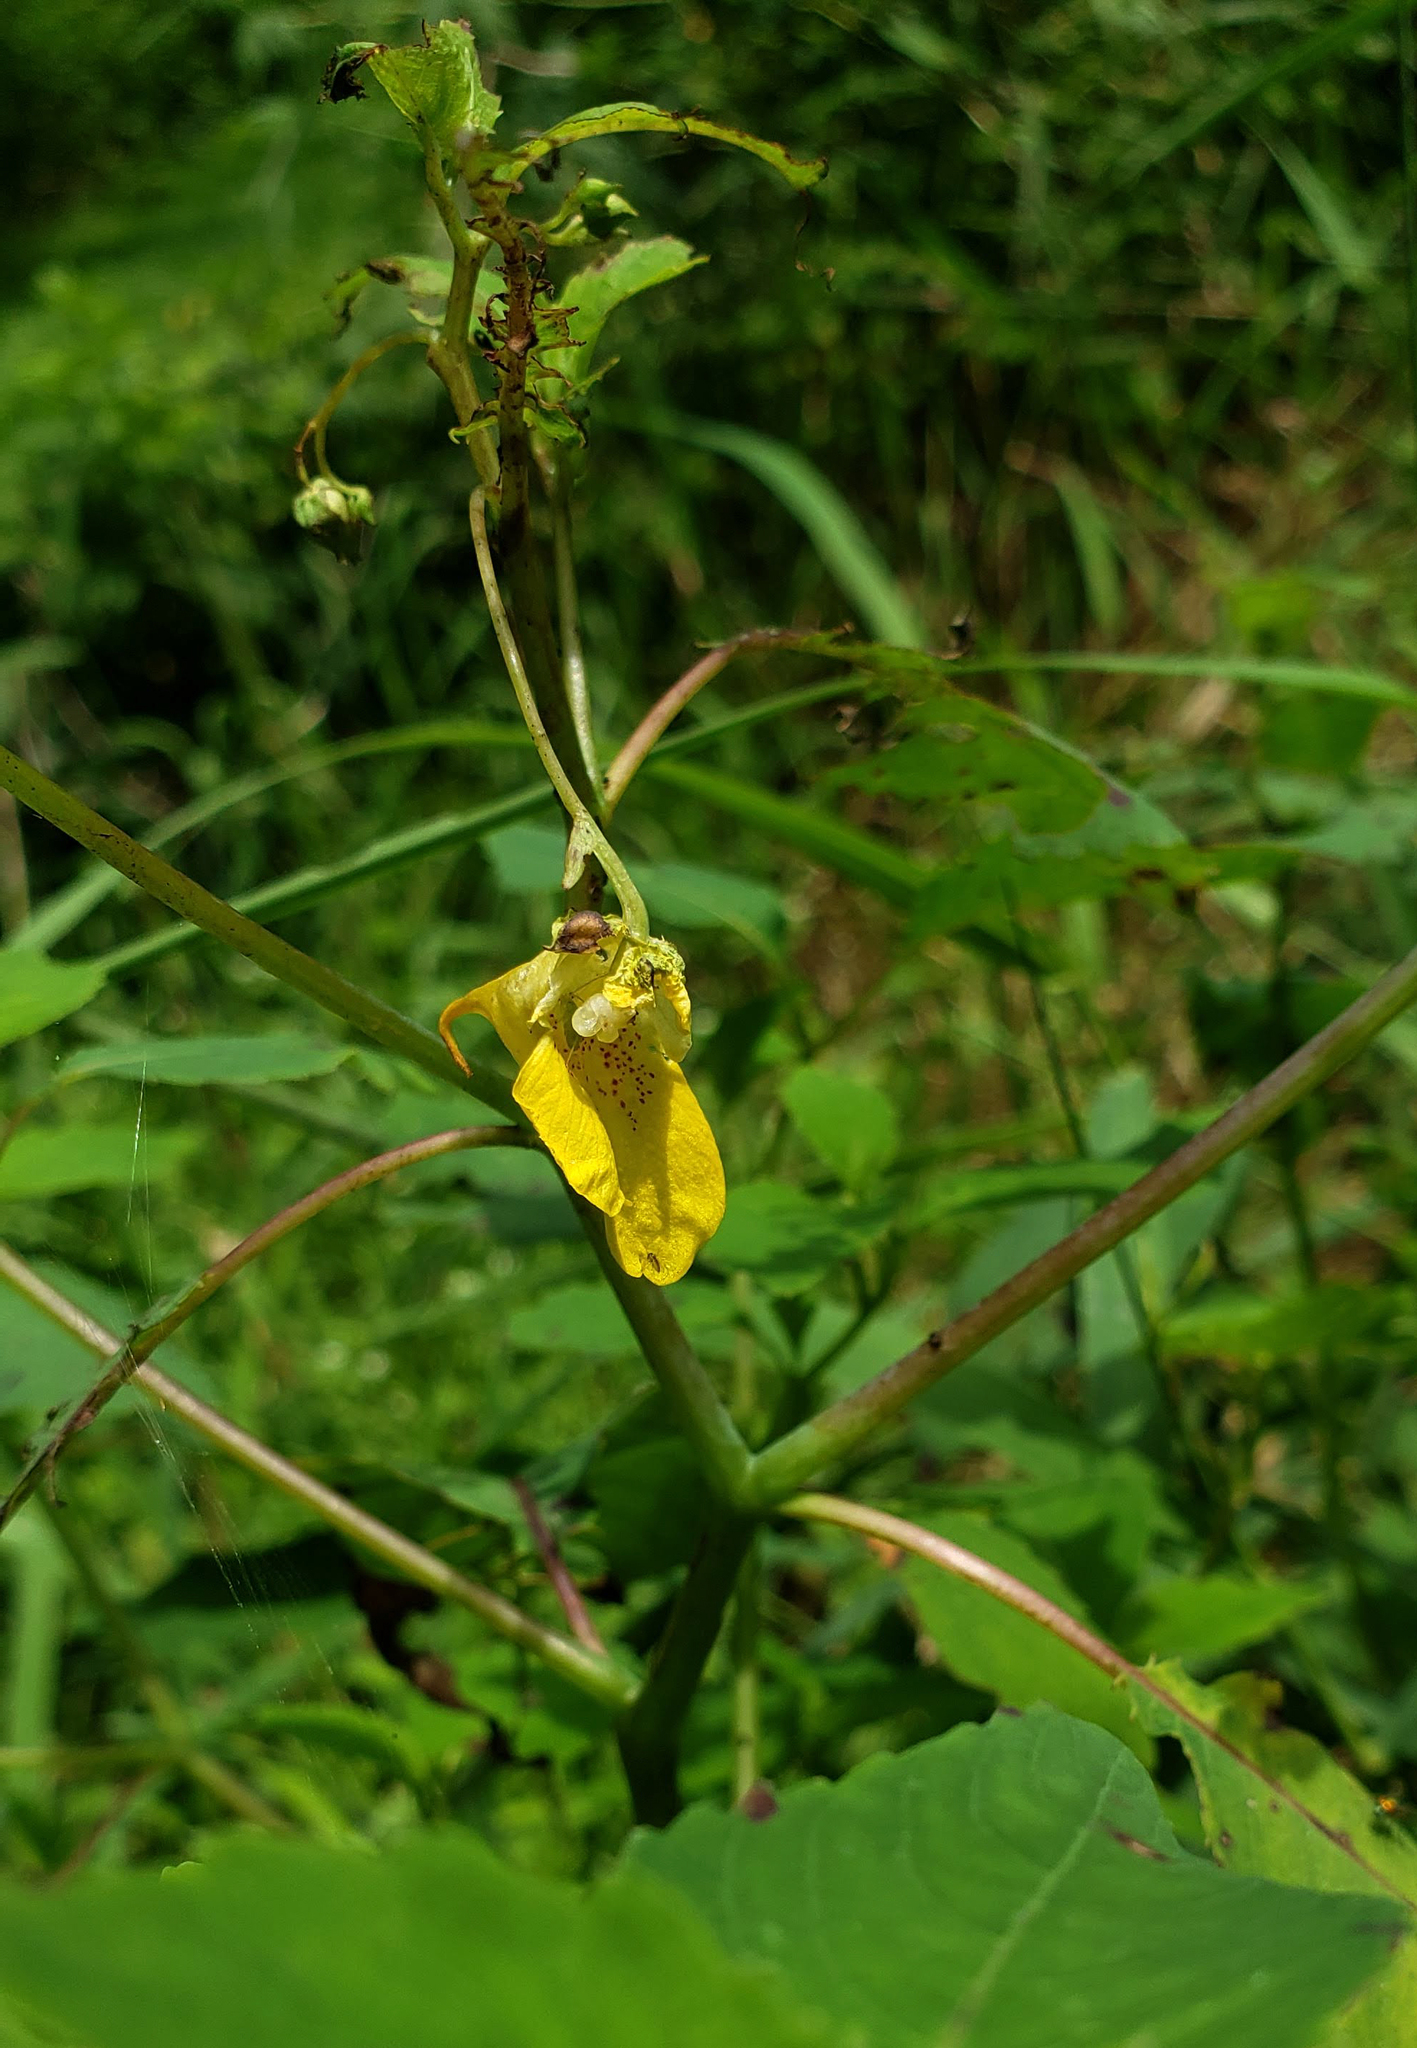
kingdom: Plantae
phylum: Tracheophyta
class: Magnoliopsida
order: Ericales
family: Balsaminaceae
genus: Impatiens
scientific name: Impatiens pallida
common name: Pale snapweed
